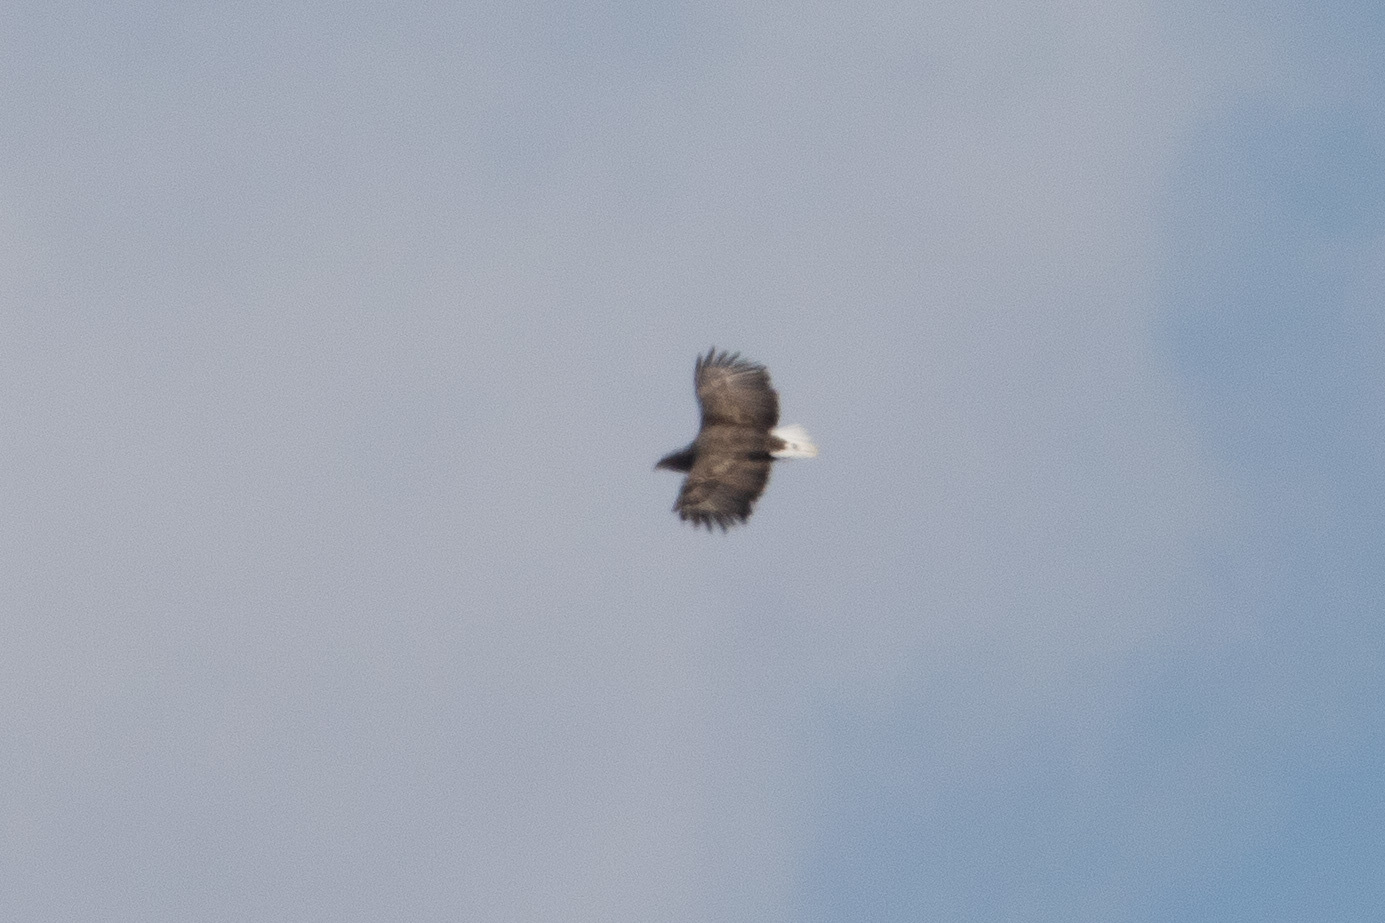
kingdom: Animalia
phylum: Chordata
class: Aves
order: Accipitriformes
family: Accipitridae
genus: Haliaeetus
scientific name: Haliaeetus albicilla
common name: White-tailed eagle
